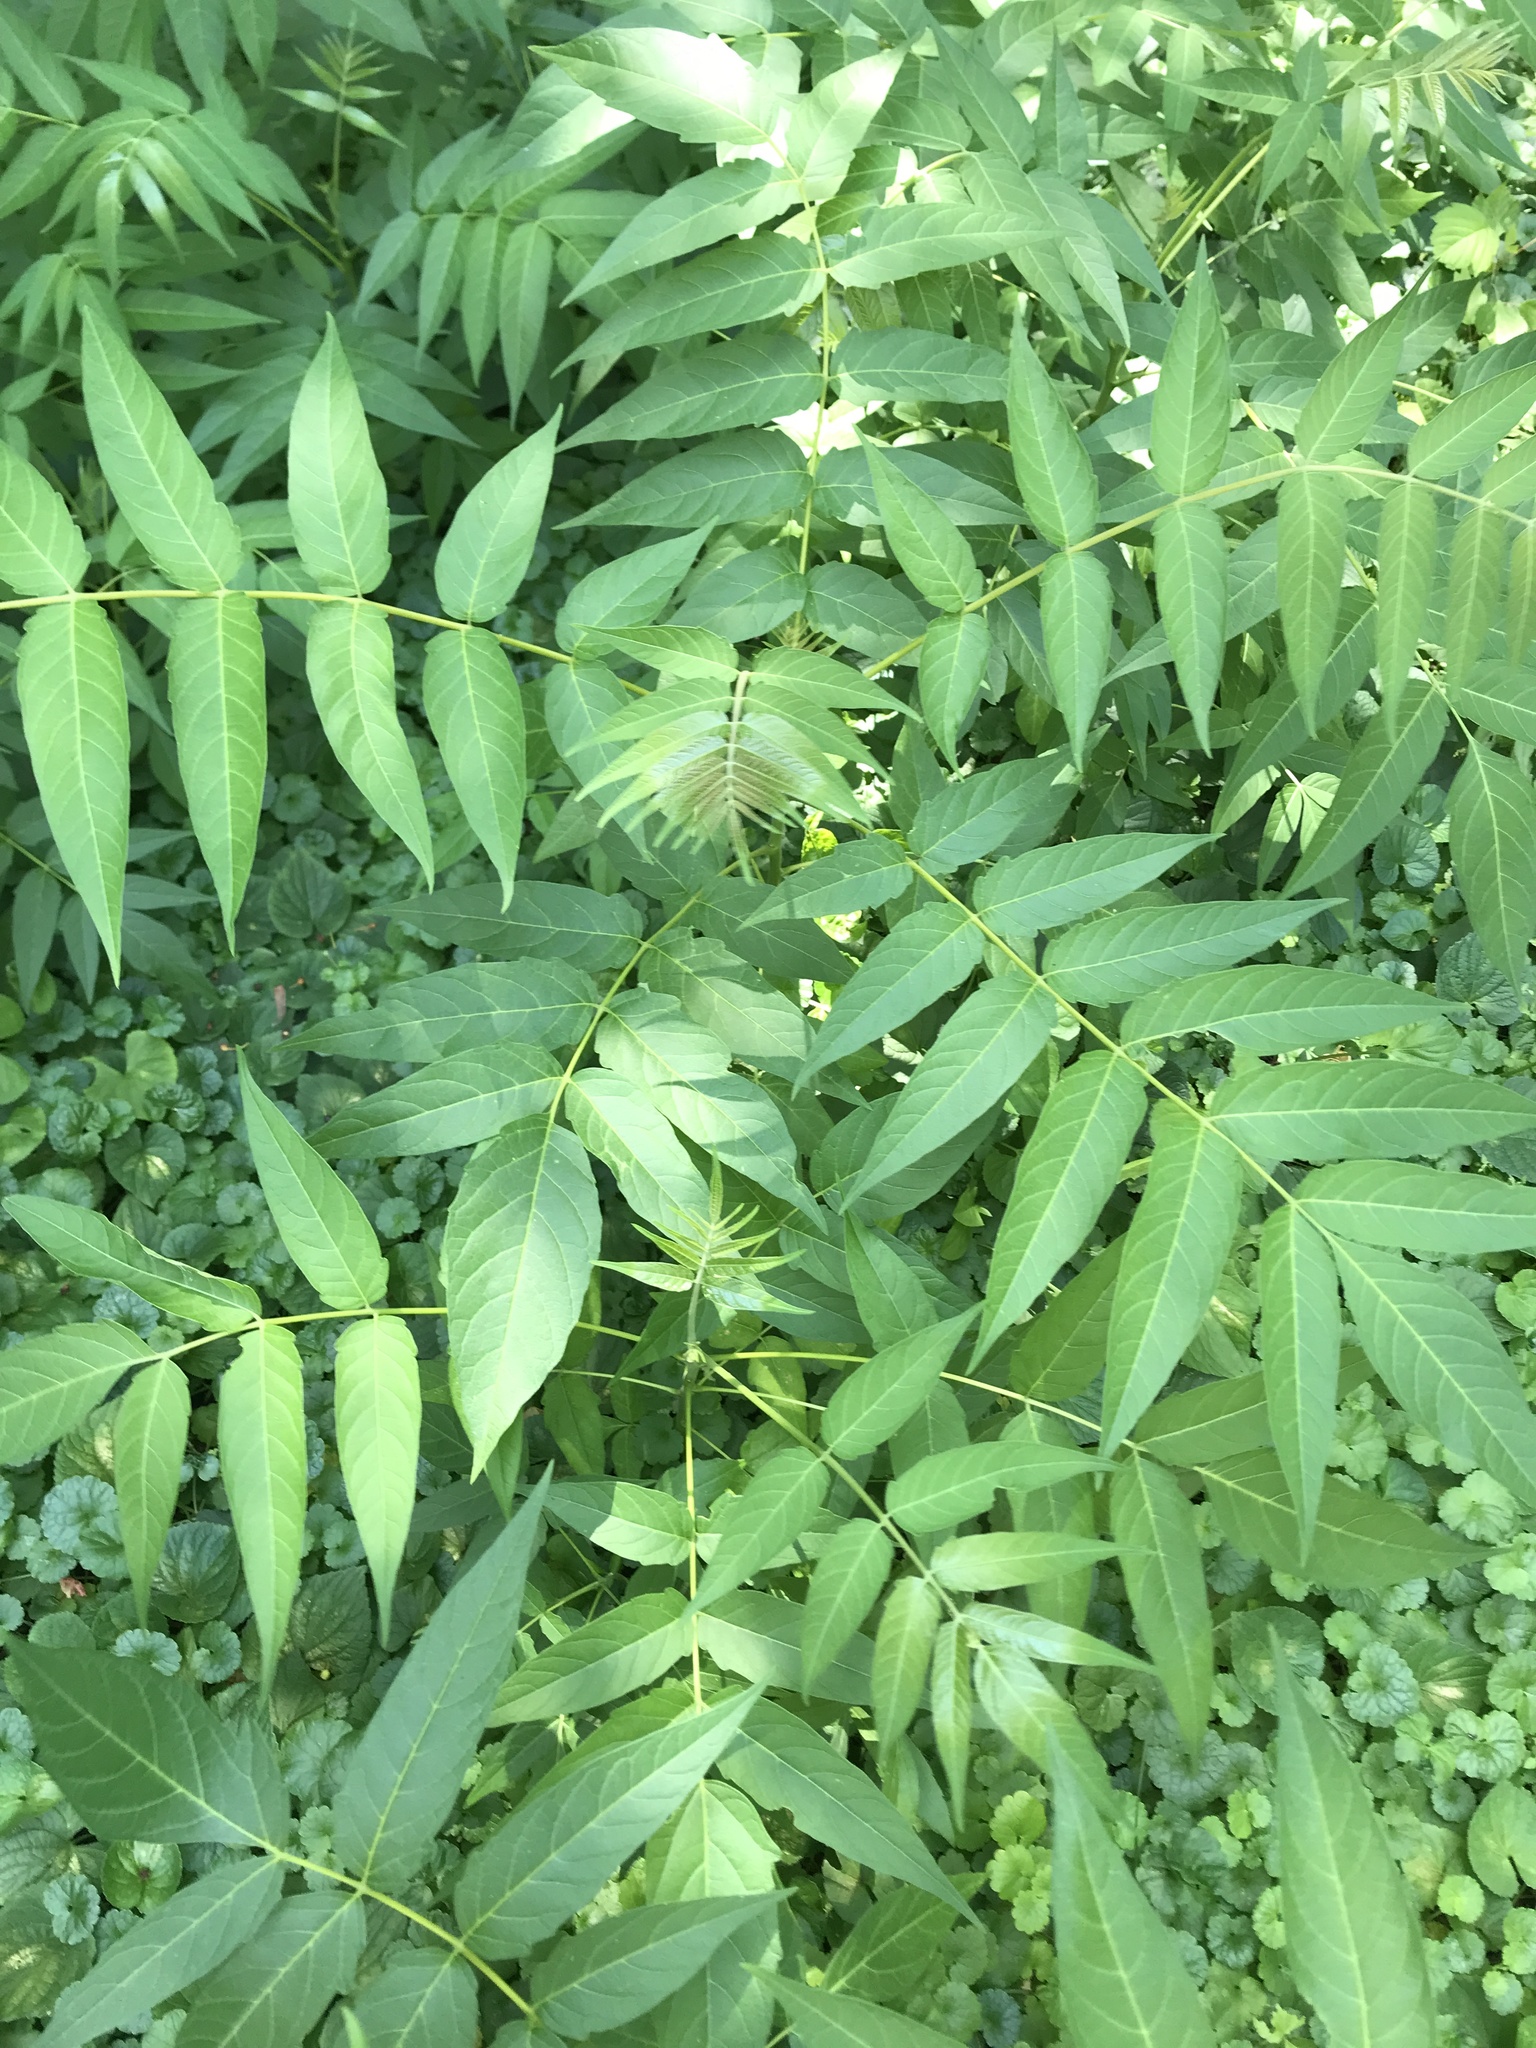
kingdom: Plantae
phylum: Tracheophyta
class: Magnoliopsida
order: Sapindales
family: Simaroubaceae
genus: Ailanthus
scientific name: Ailanthus altissima
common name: Tree-of-heaven
